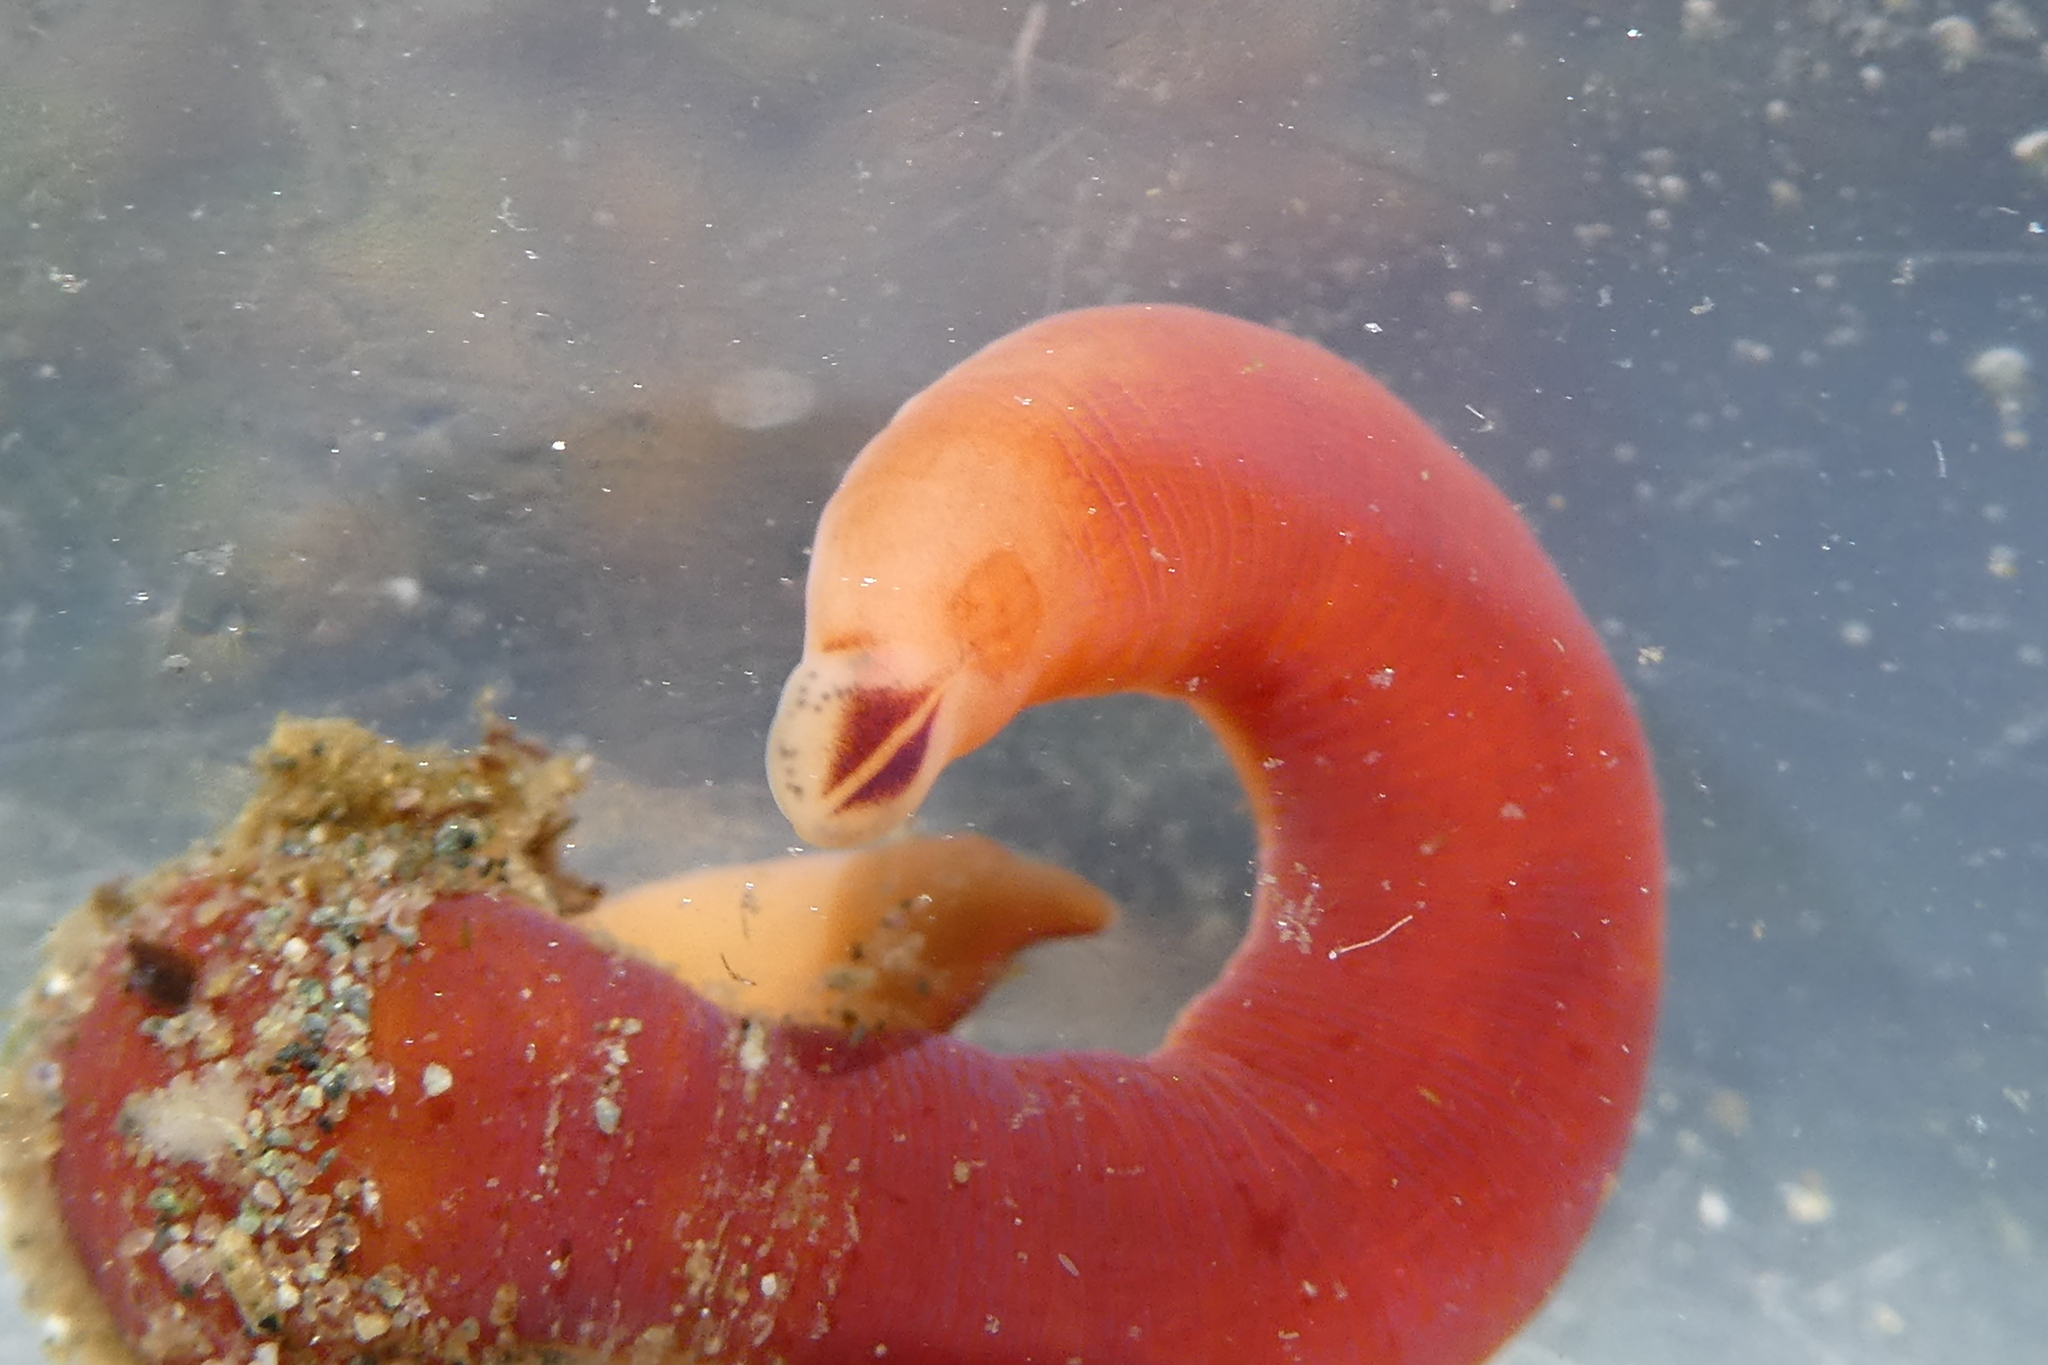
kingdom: Animalia
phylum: Nemertea
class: Hoplonemertea
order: Monostilifera
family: Cratenemertidae
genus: Nipponnemertes
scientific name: Nipponnemertes bimaculata
